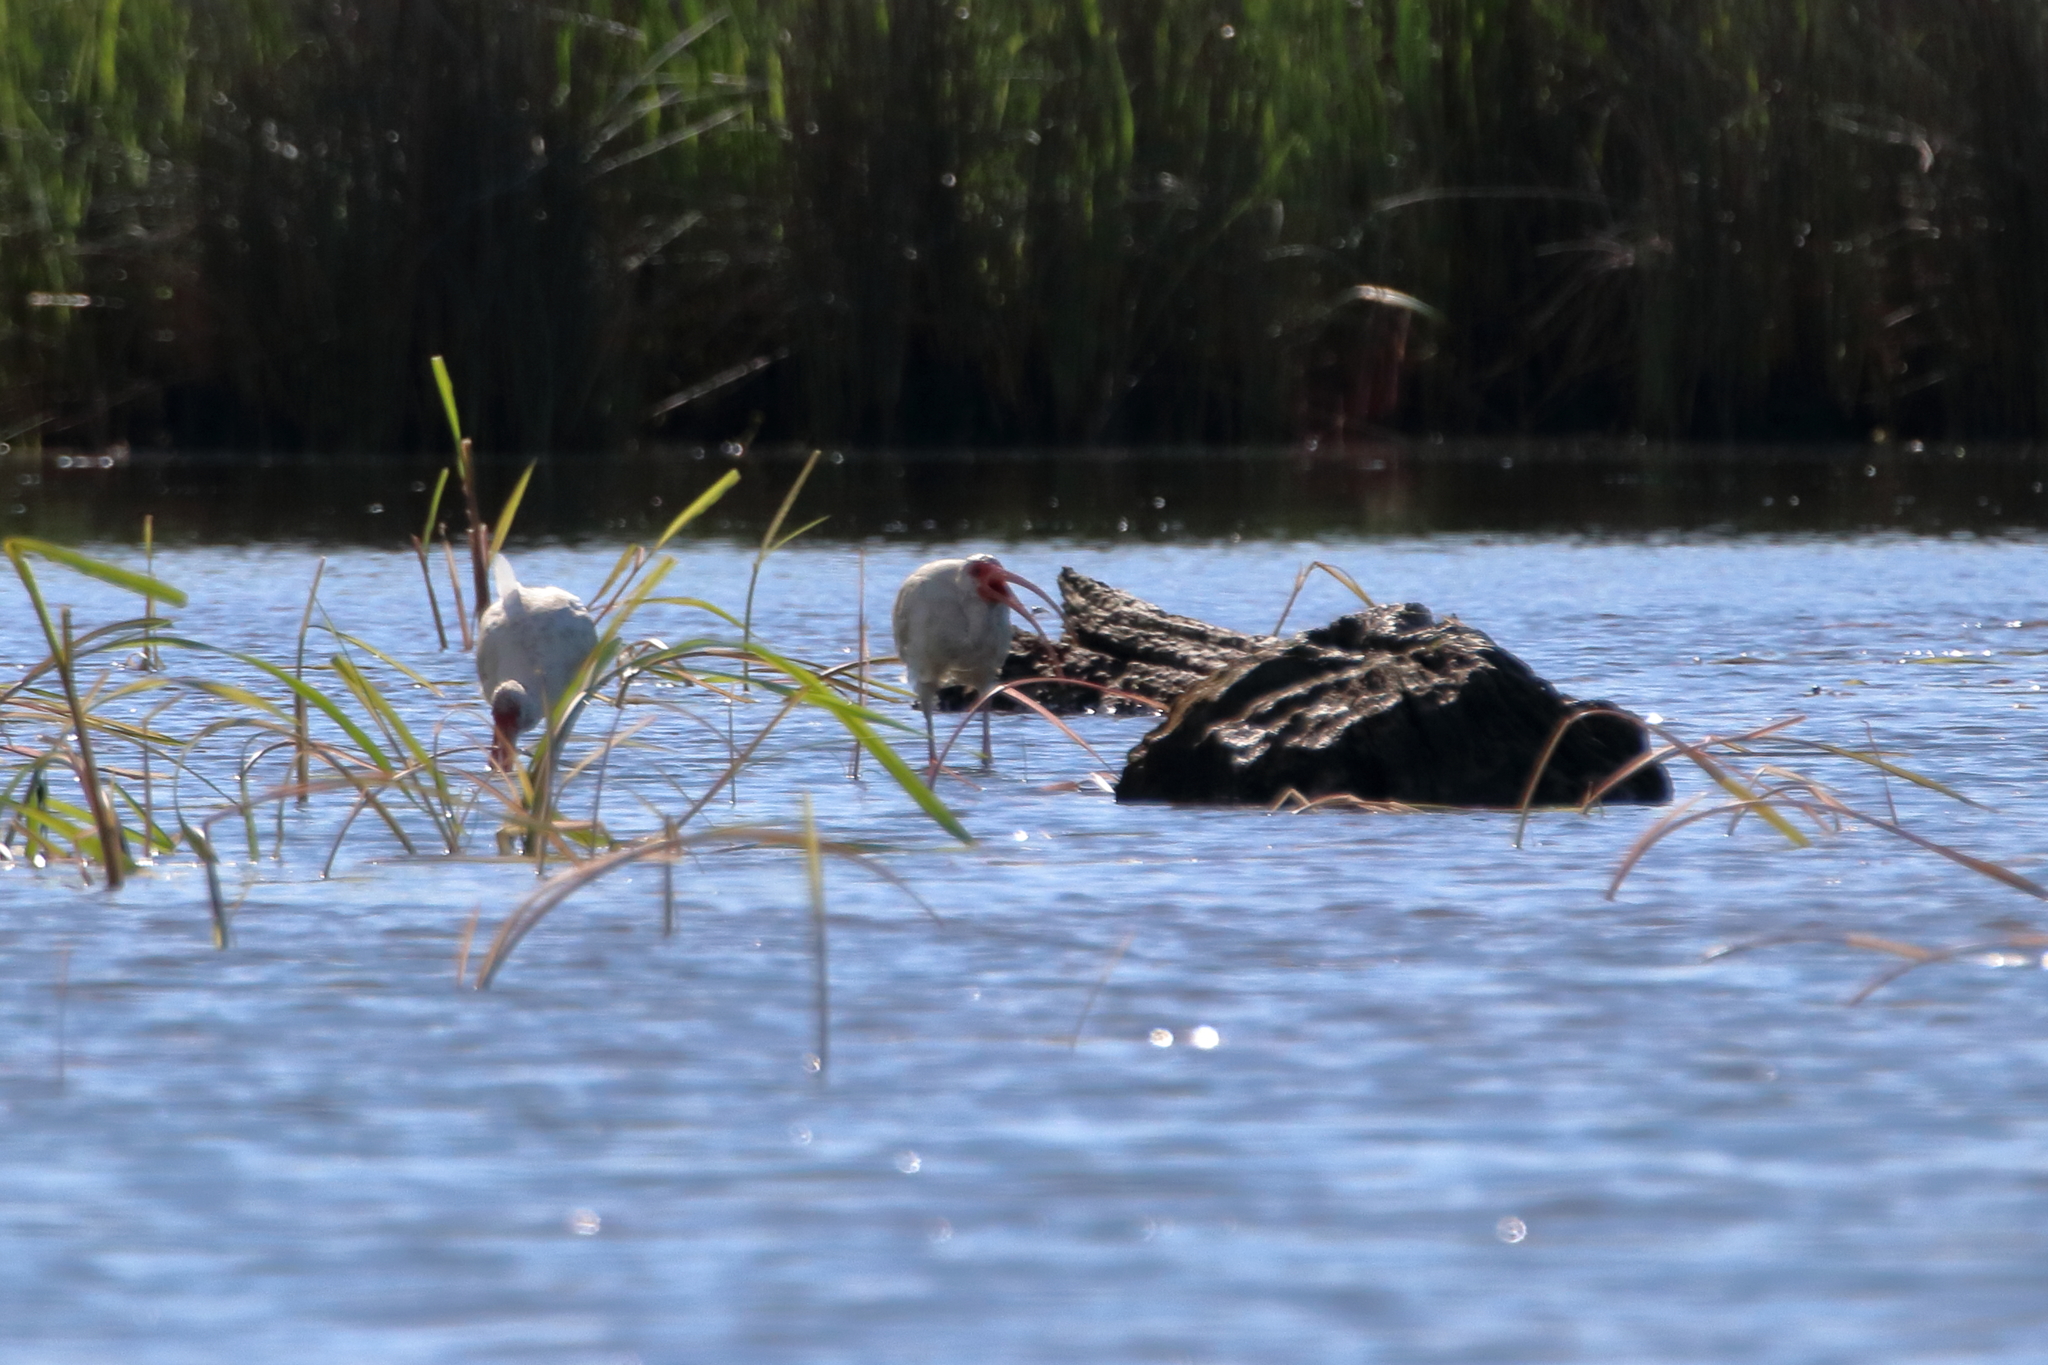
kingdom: Animalia
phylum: Chordata
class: Aves
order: Pelecaniformes
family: Threskiornithidae
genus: Eudocimus
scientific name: Eudocimus albus
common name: White ibis
